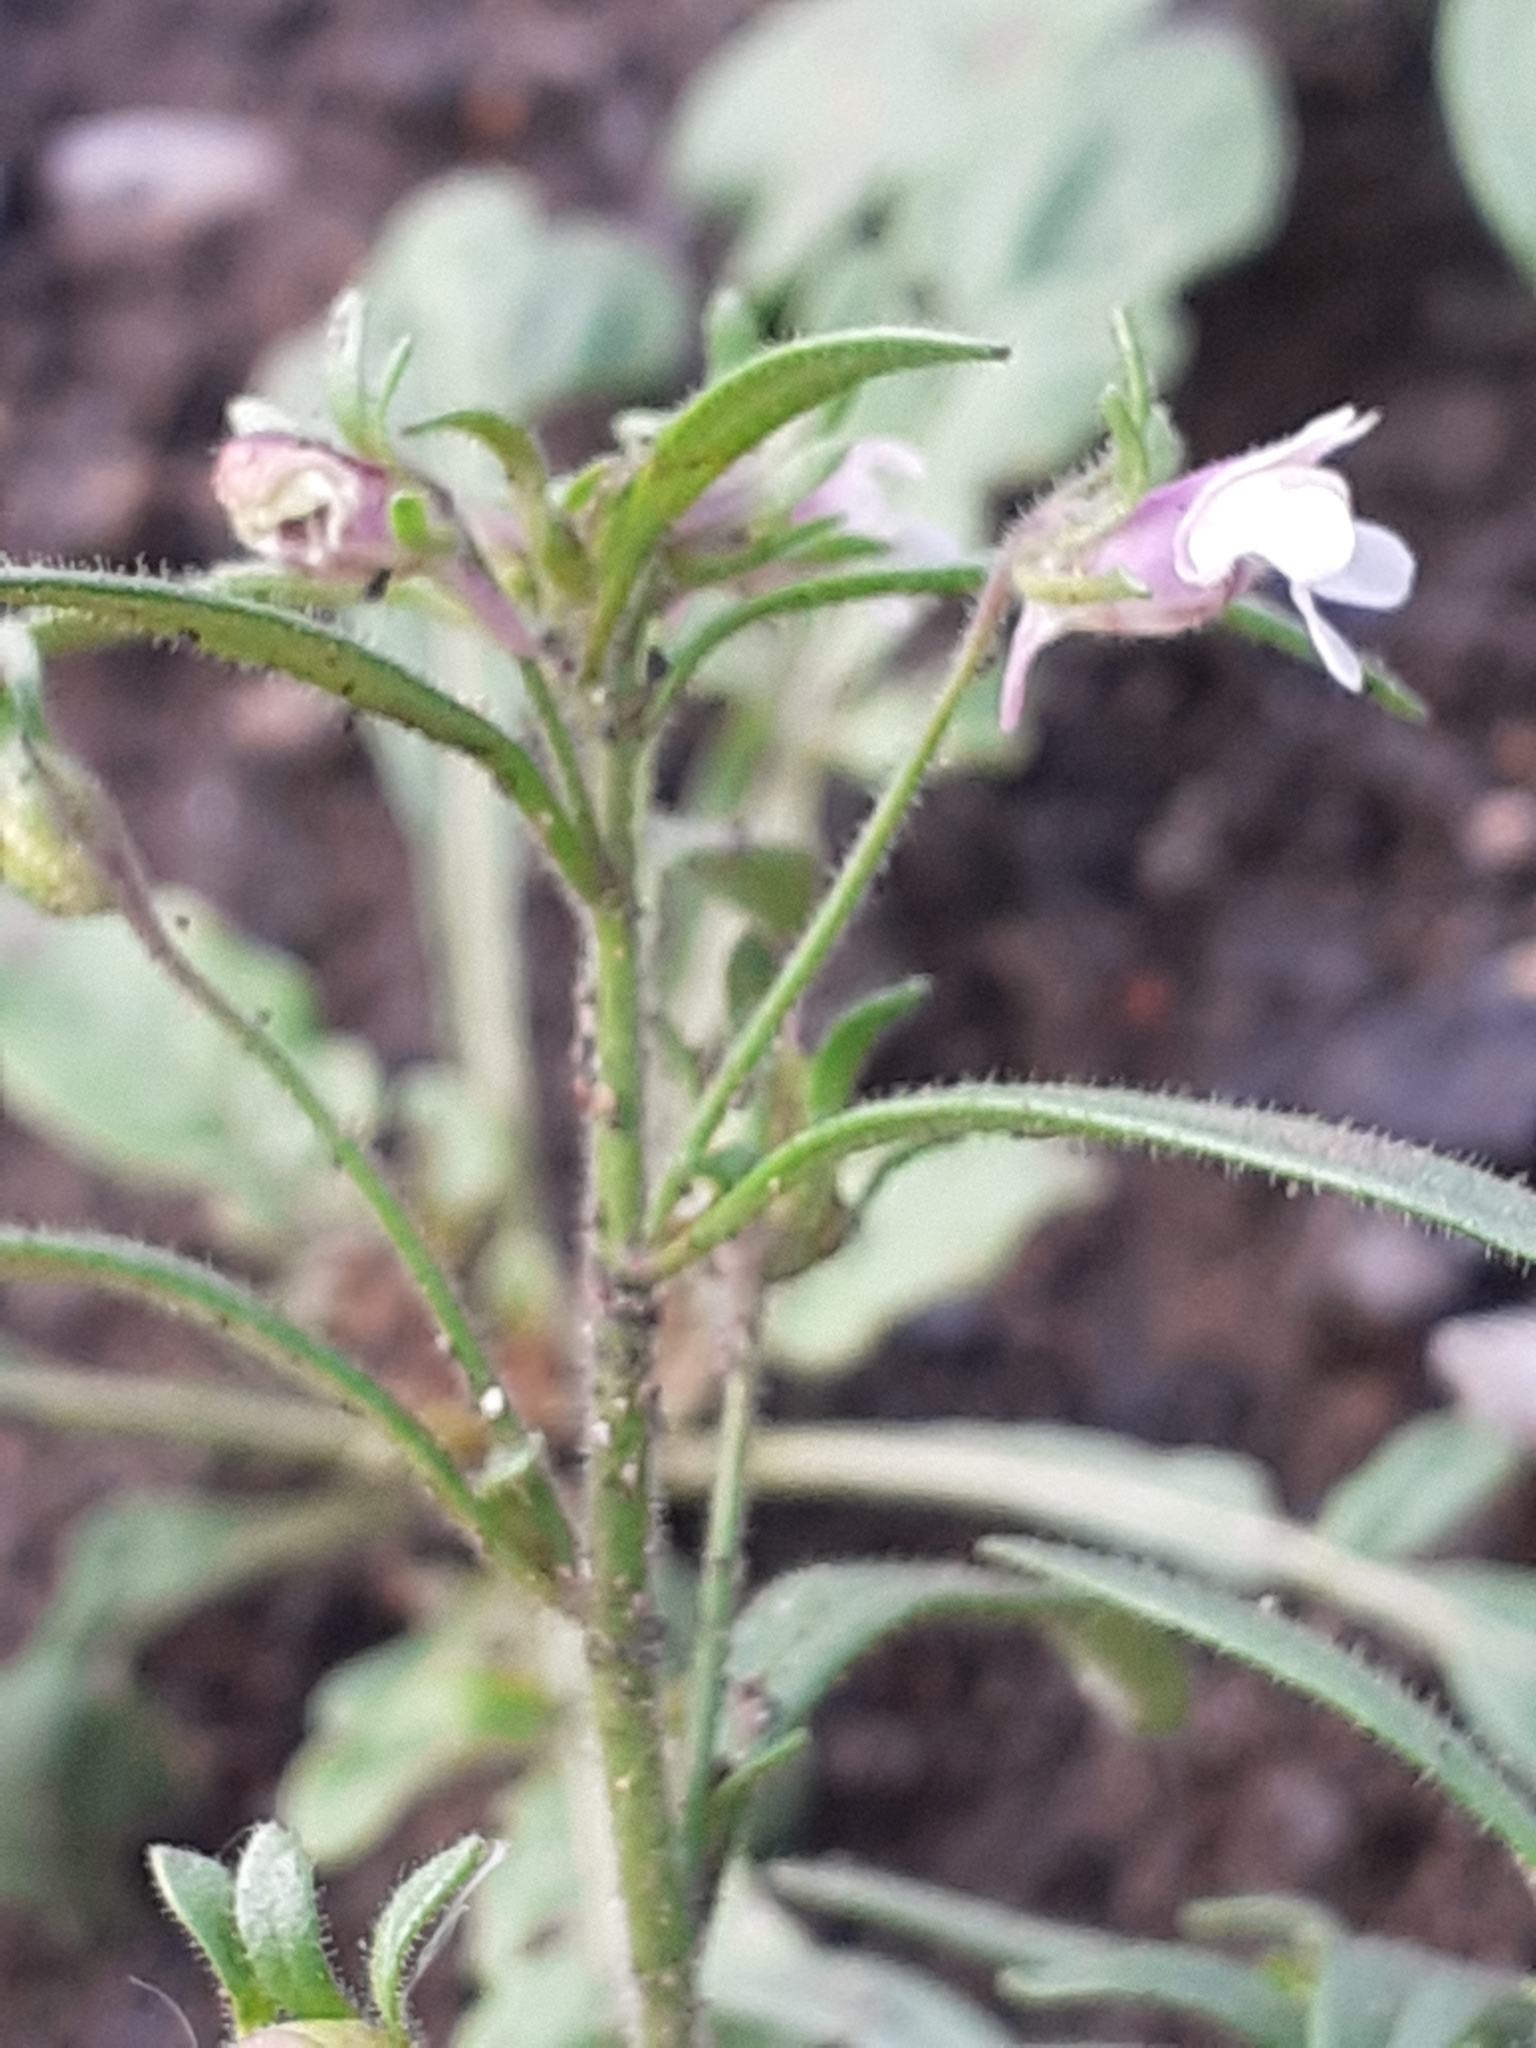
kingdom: Plantae
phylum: Tracheophyta
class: Magnoliopsida
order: Lamiales
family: Plantaginaceae
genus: Chaenorhinum
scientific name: Chaenorhinum minus
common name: Dwarf snapdragon
